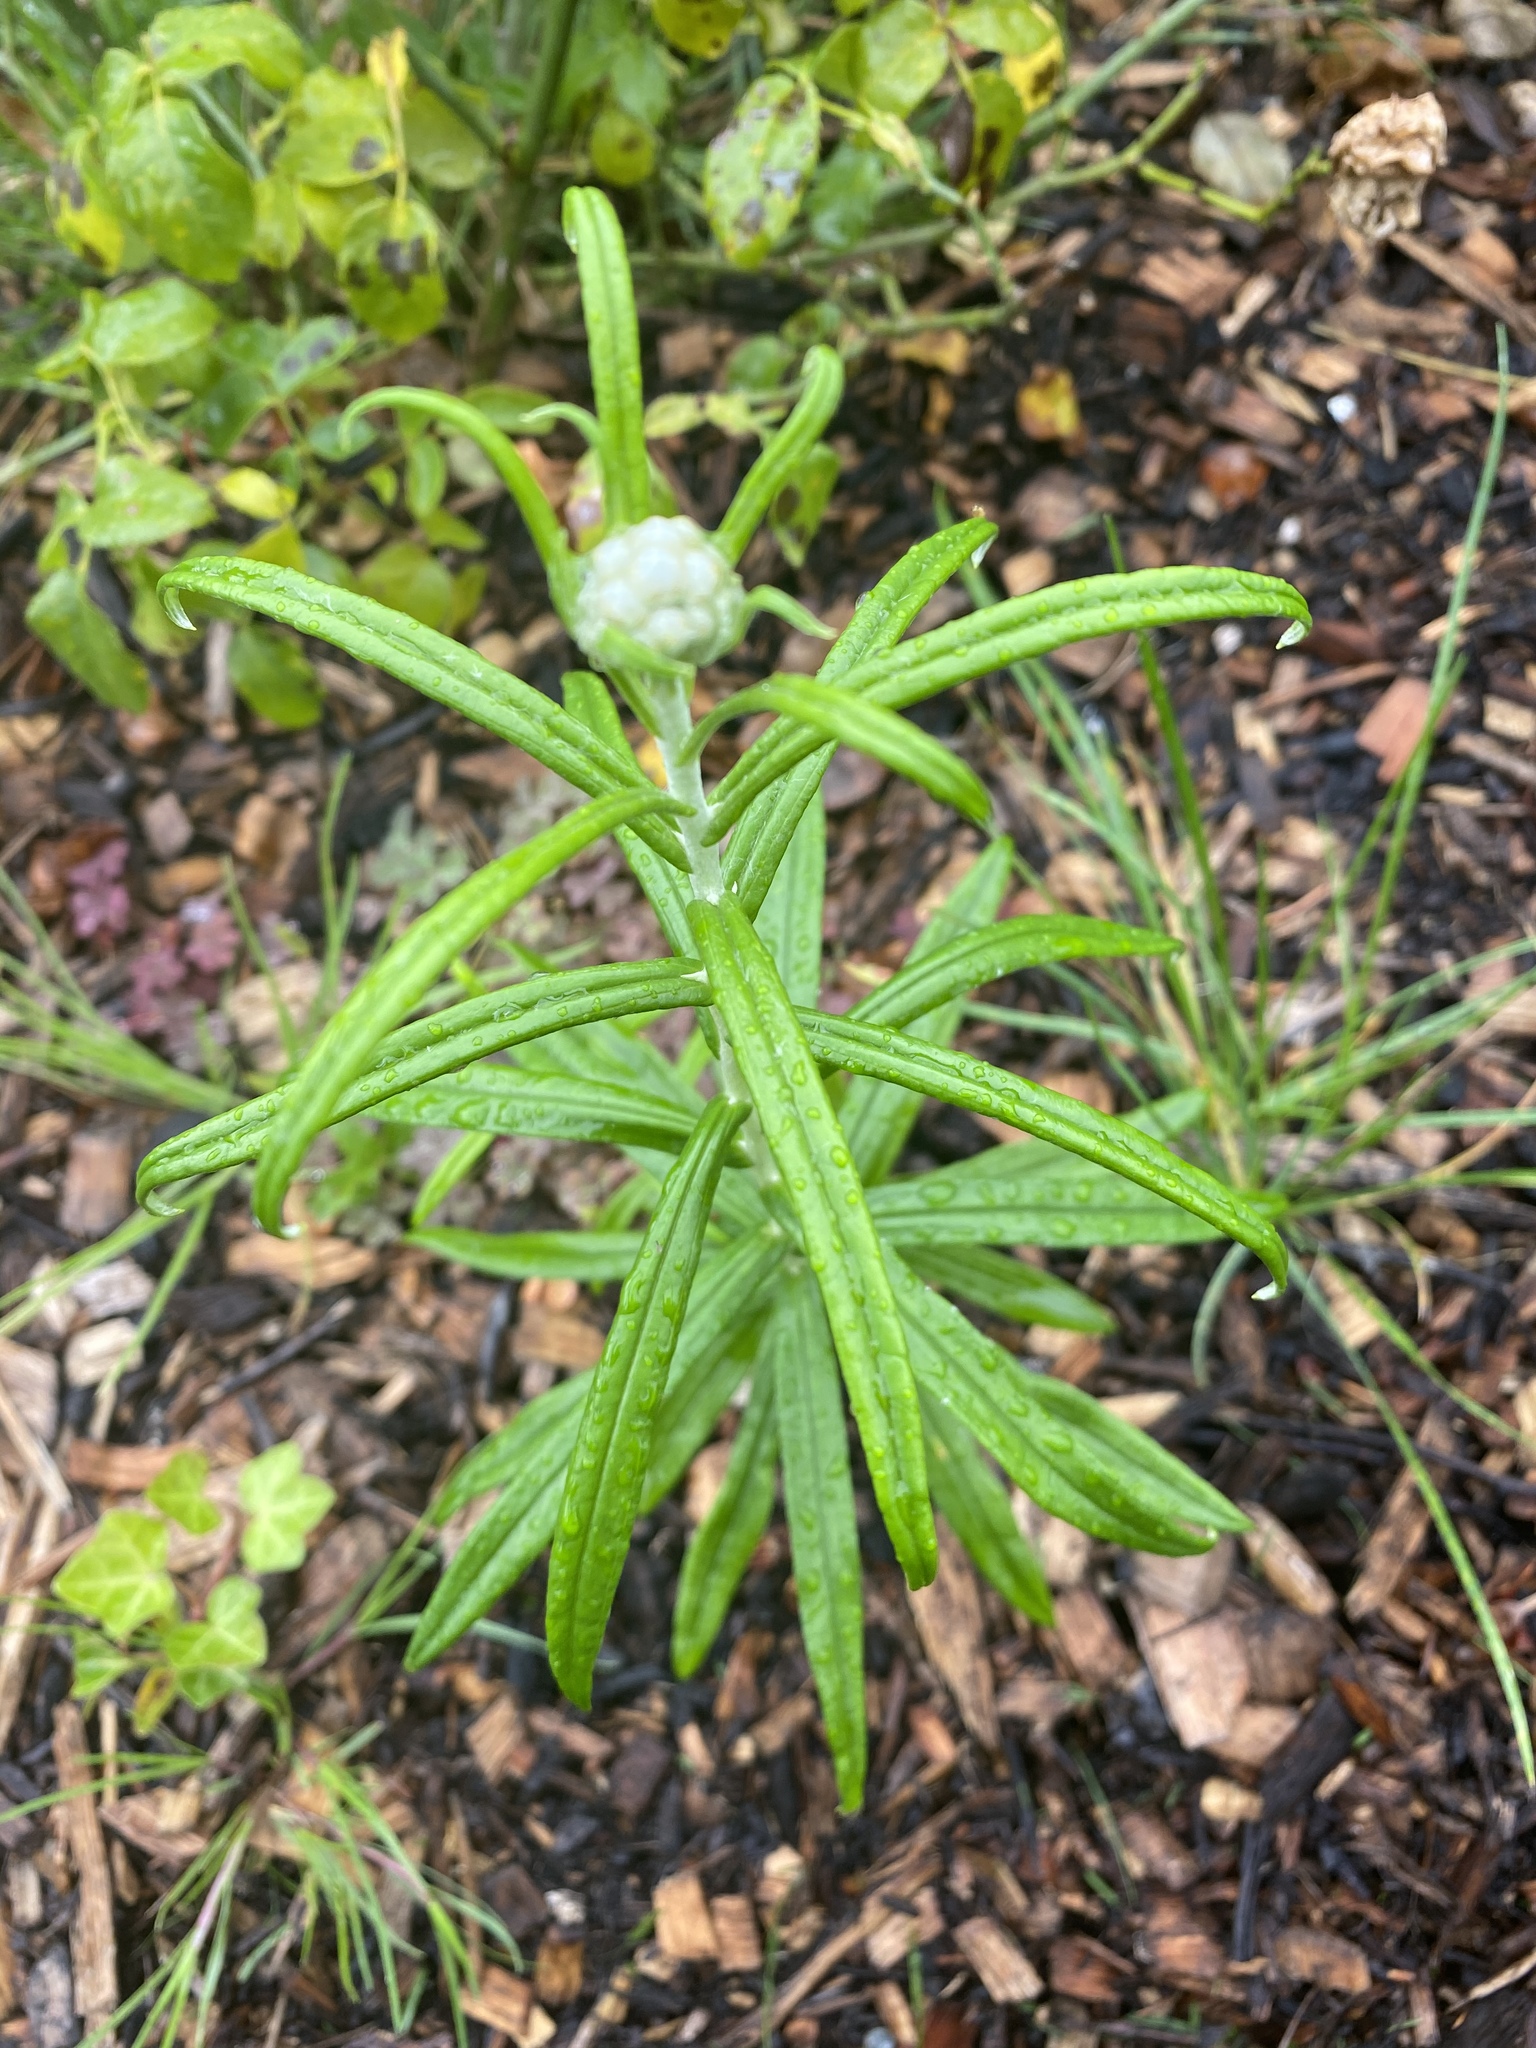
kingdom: Plantae
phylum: Tracheophyta
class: Magnoliopsida
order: Asterales
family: Asteraceae
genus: Anaphalis
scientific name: Anaphalis margaritacea
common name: Pearly everlasting
